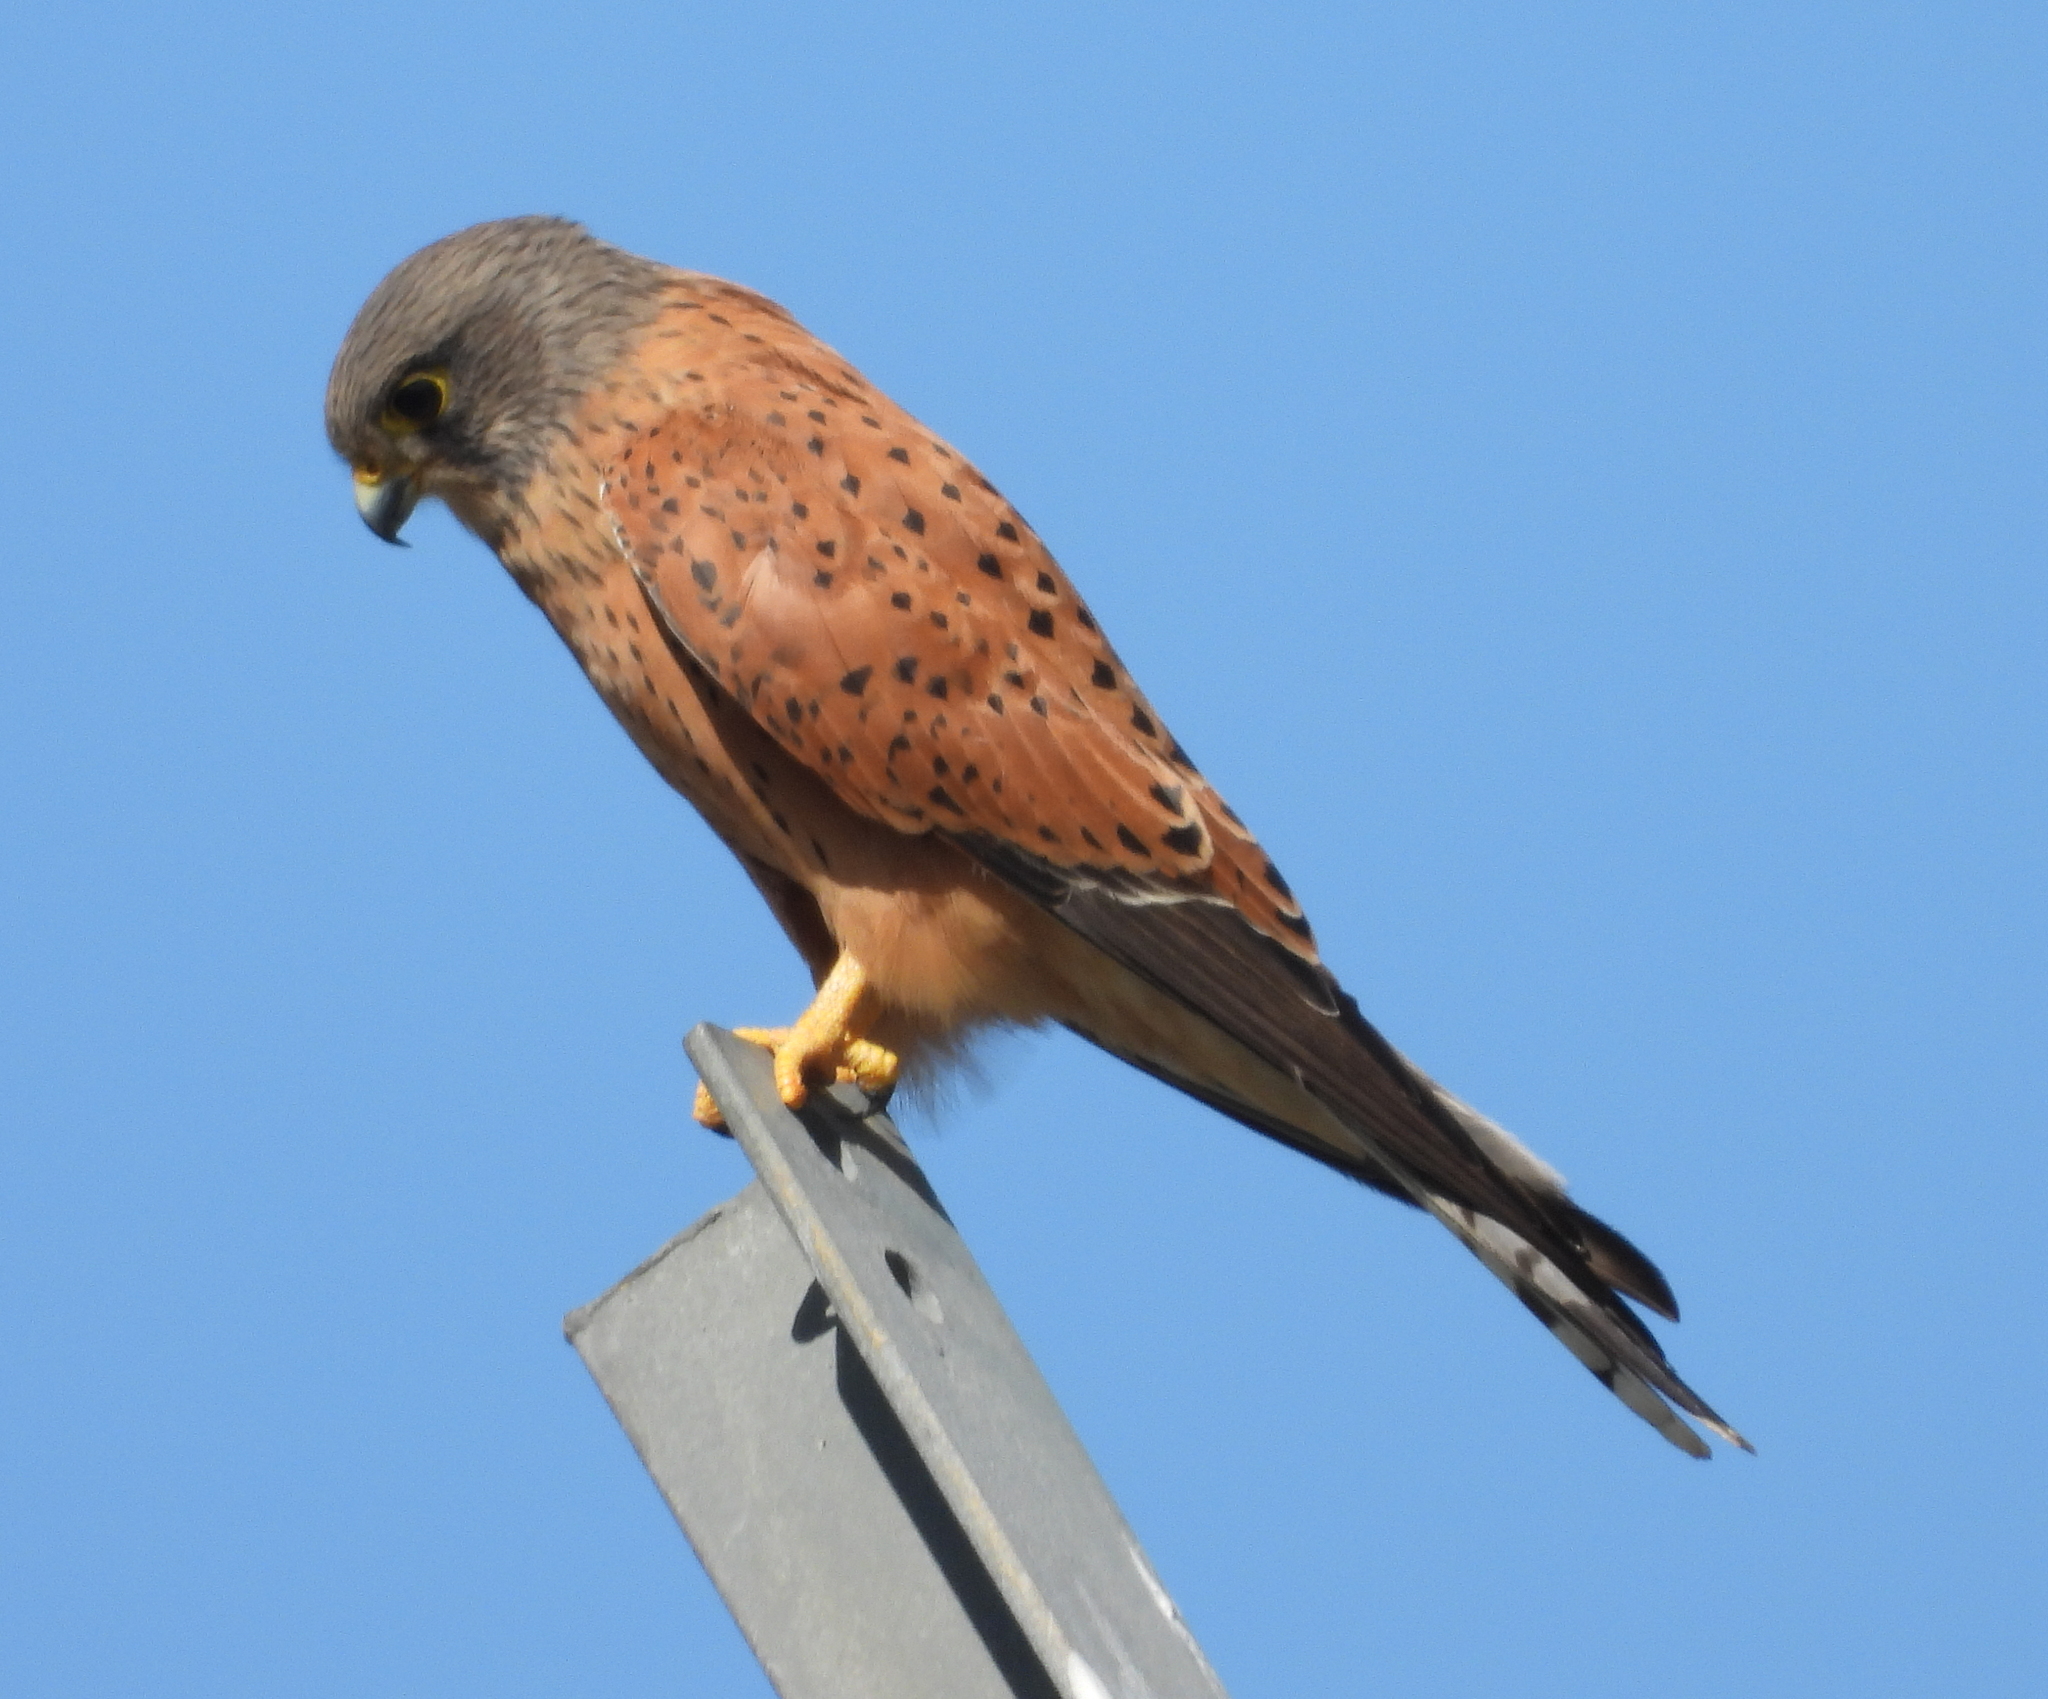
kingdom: Animalia
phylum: Chordata
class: Aves
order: Falconiformes
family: Falconidae
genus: Falco
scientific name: Falco rupicolus
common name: Rock kestrel
